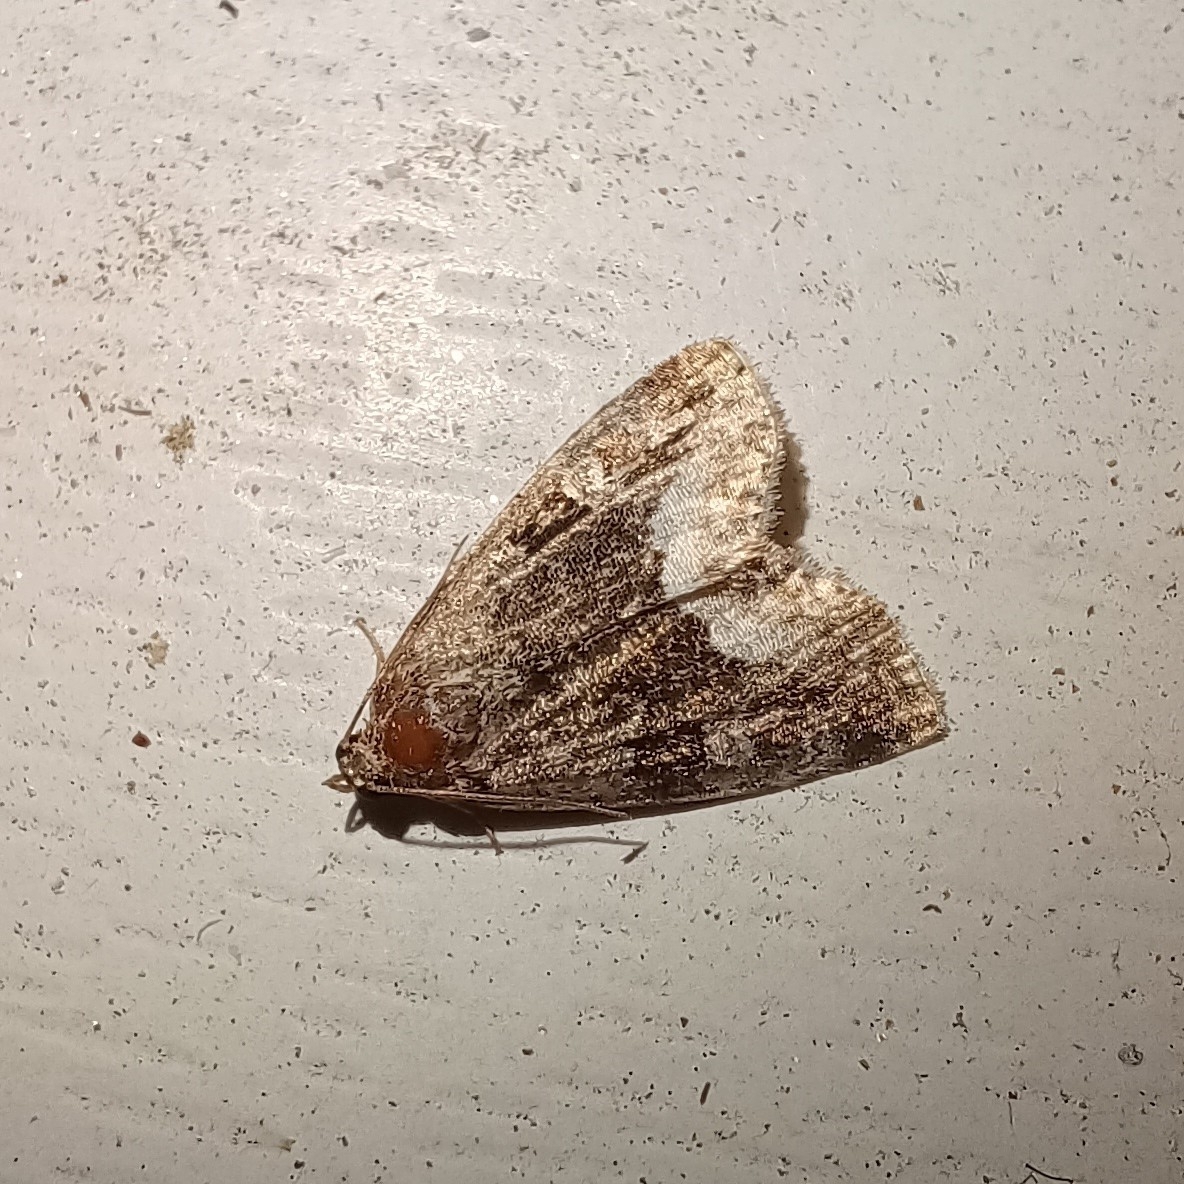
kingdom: Animalia
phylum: Arthropoda
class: Insecta
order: Lepidoptera
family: Noctuidae
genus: Deltote
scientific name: Deltote pygarga
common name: Marbled white spot
